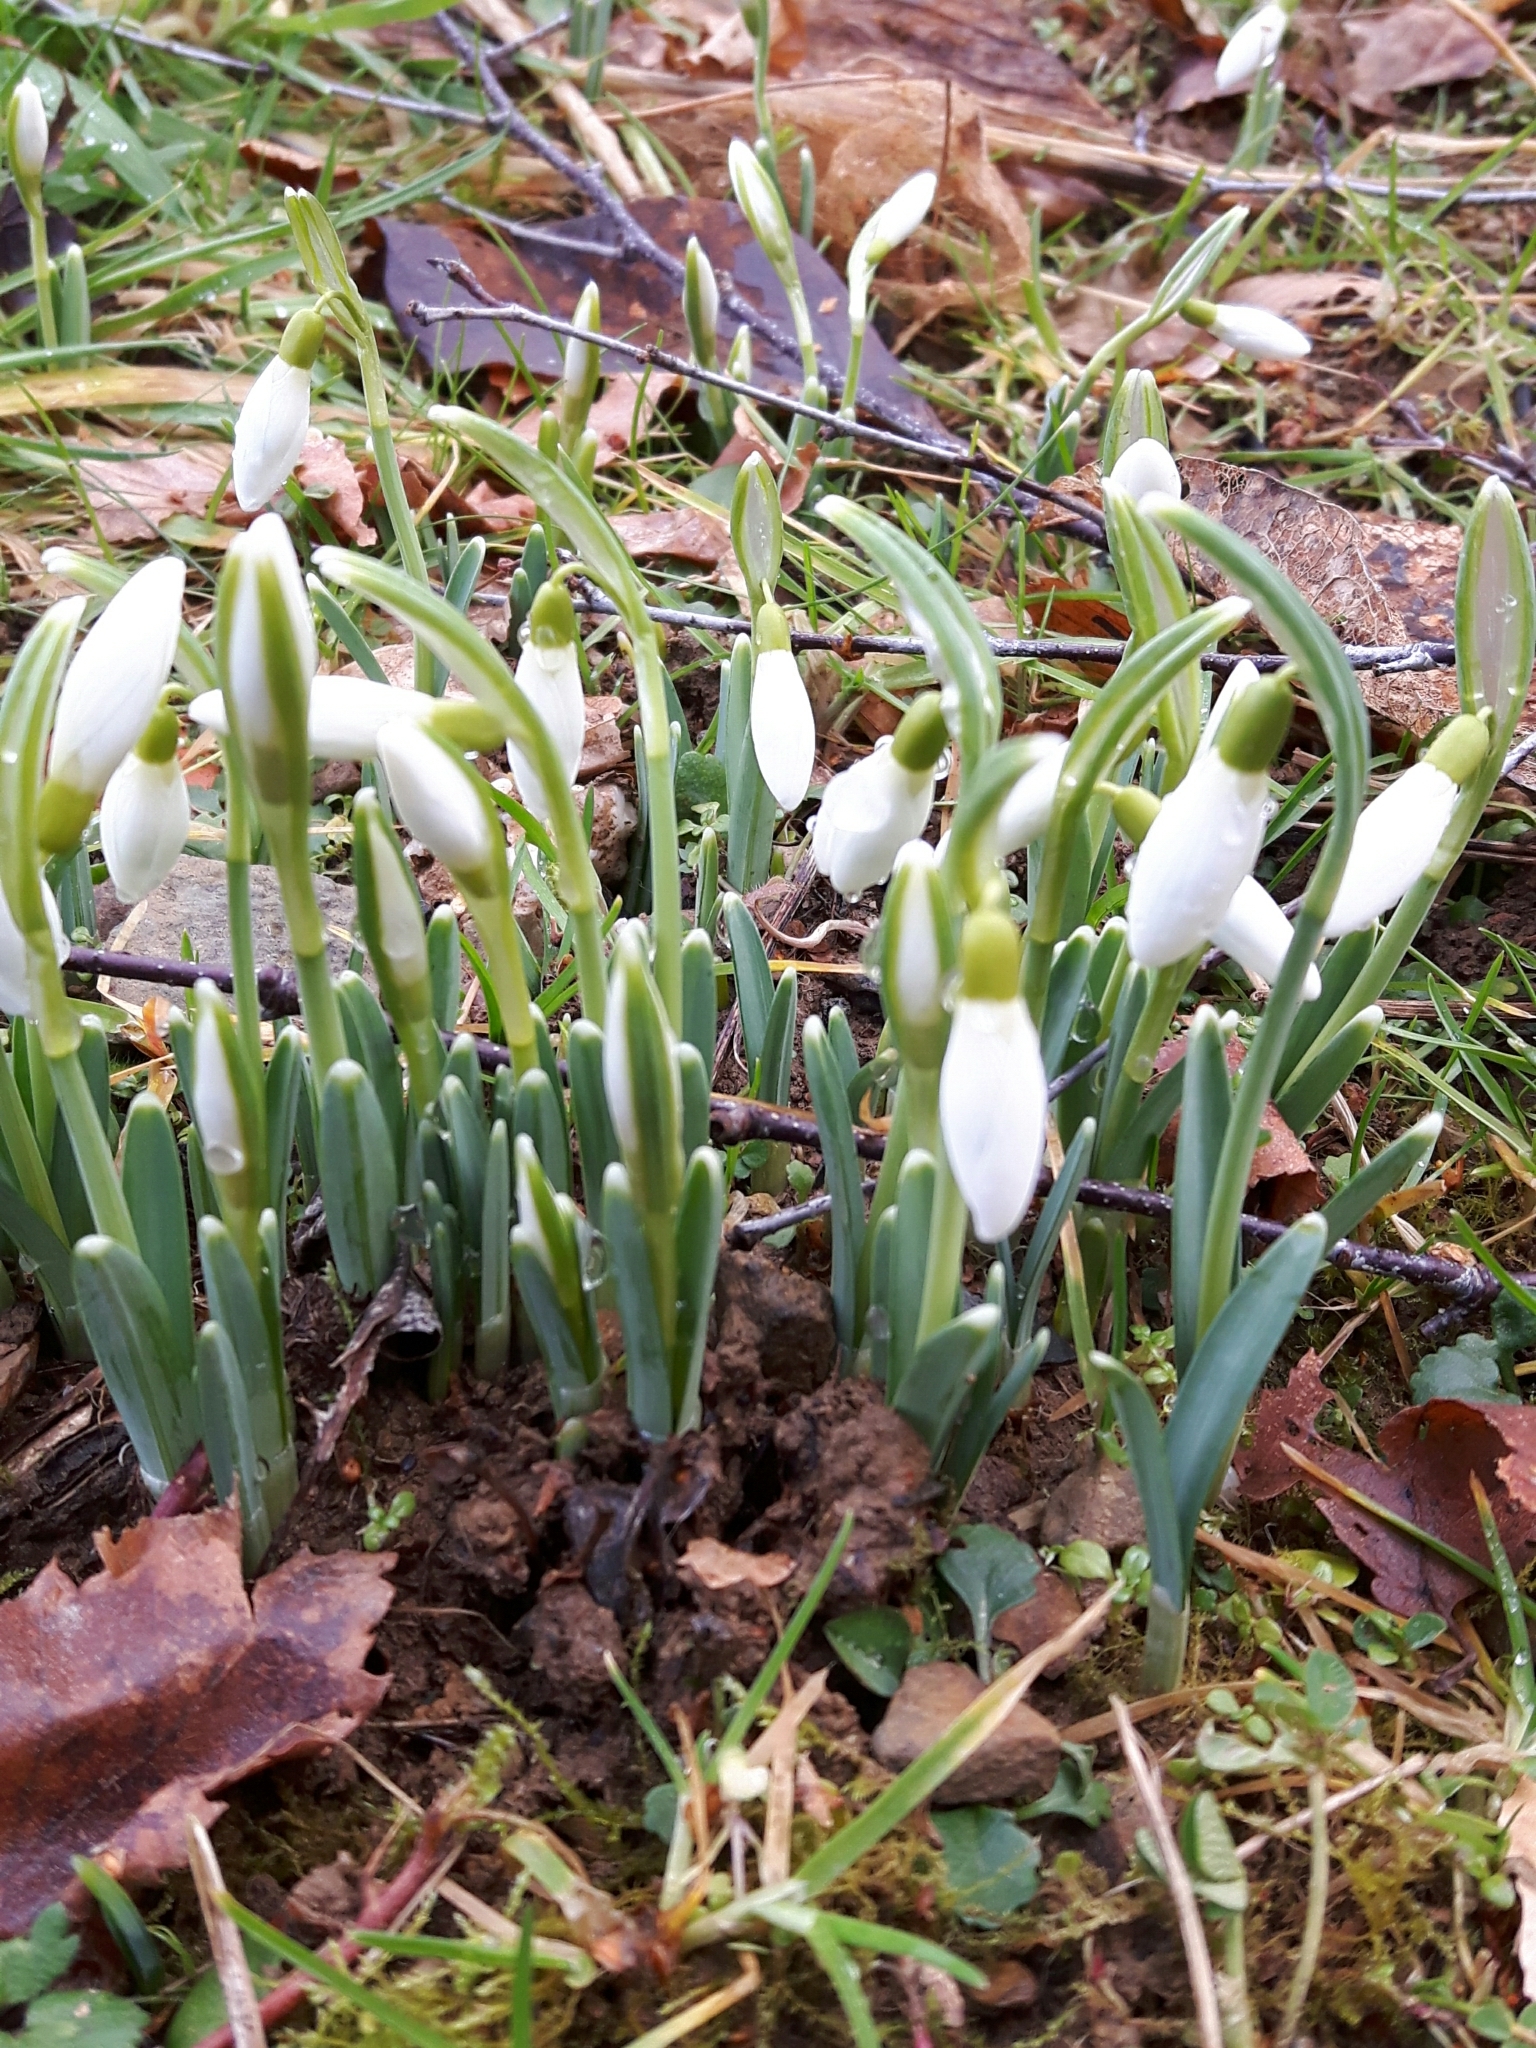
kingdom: Plantae
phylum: Tracheophyta
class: Liliopsida
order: Asparagales
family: Amaryllidaceae
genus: Galanthus
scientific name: Galanthus nivalis
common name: Snowdrop
